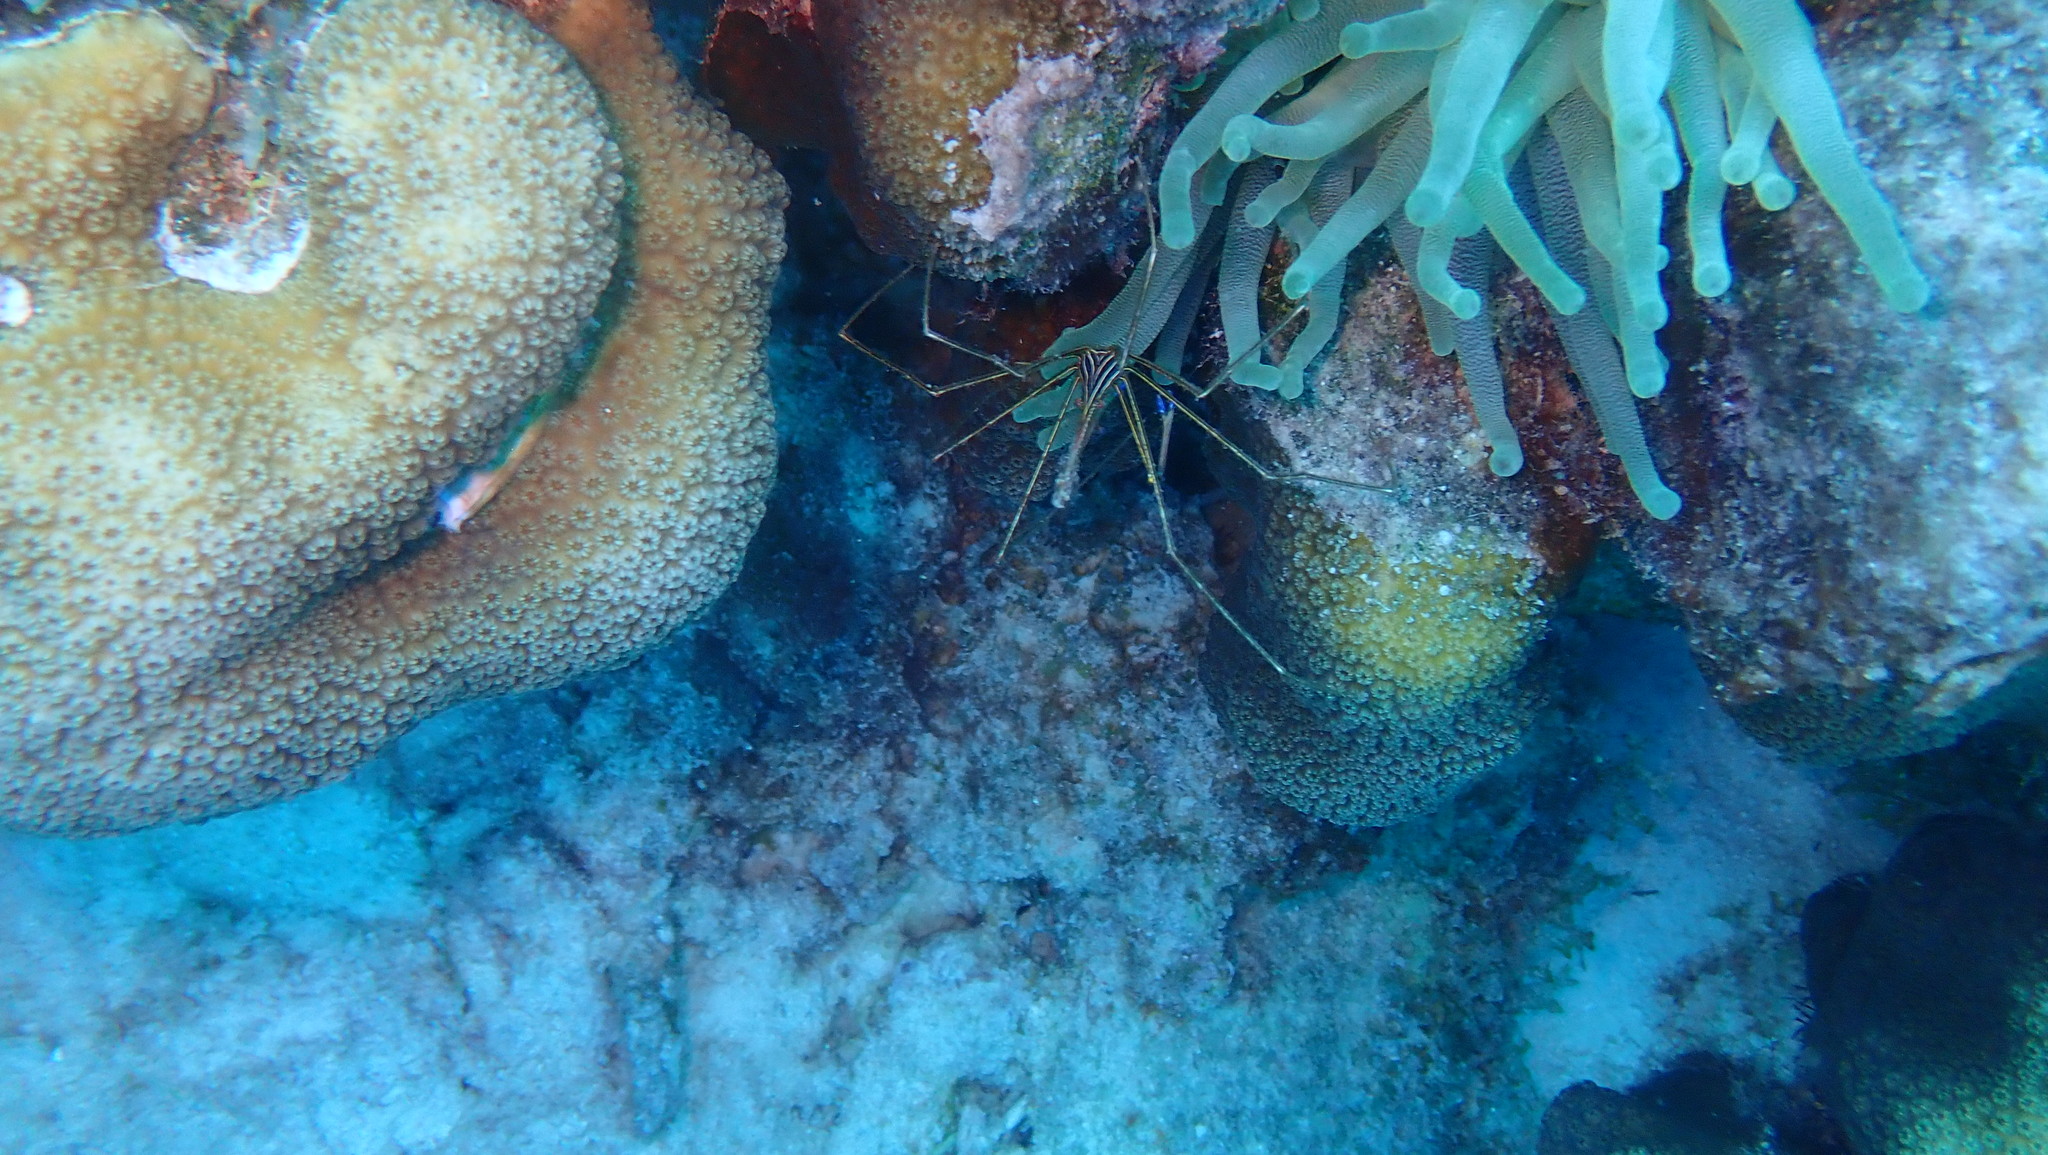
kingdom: Animalia
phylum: Arthropoda
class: Malacostraca
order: Decapoda
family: Inachoididae
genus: Stenorhynchus
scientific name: Stenorhynchus seticornis
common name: Arrow crab
